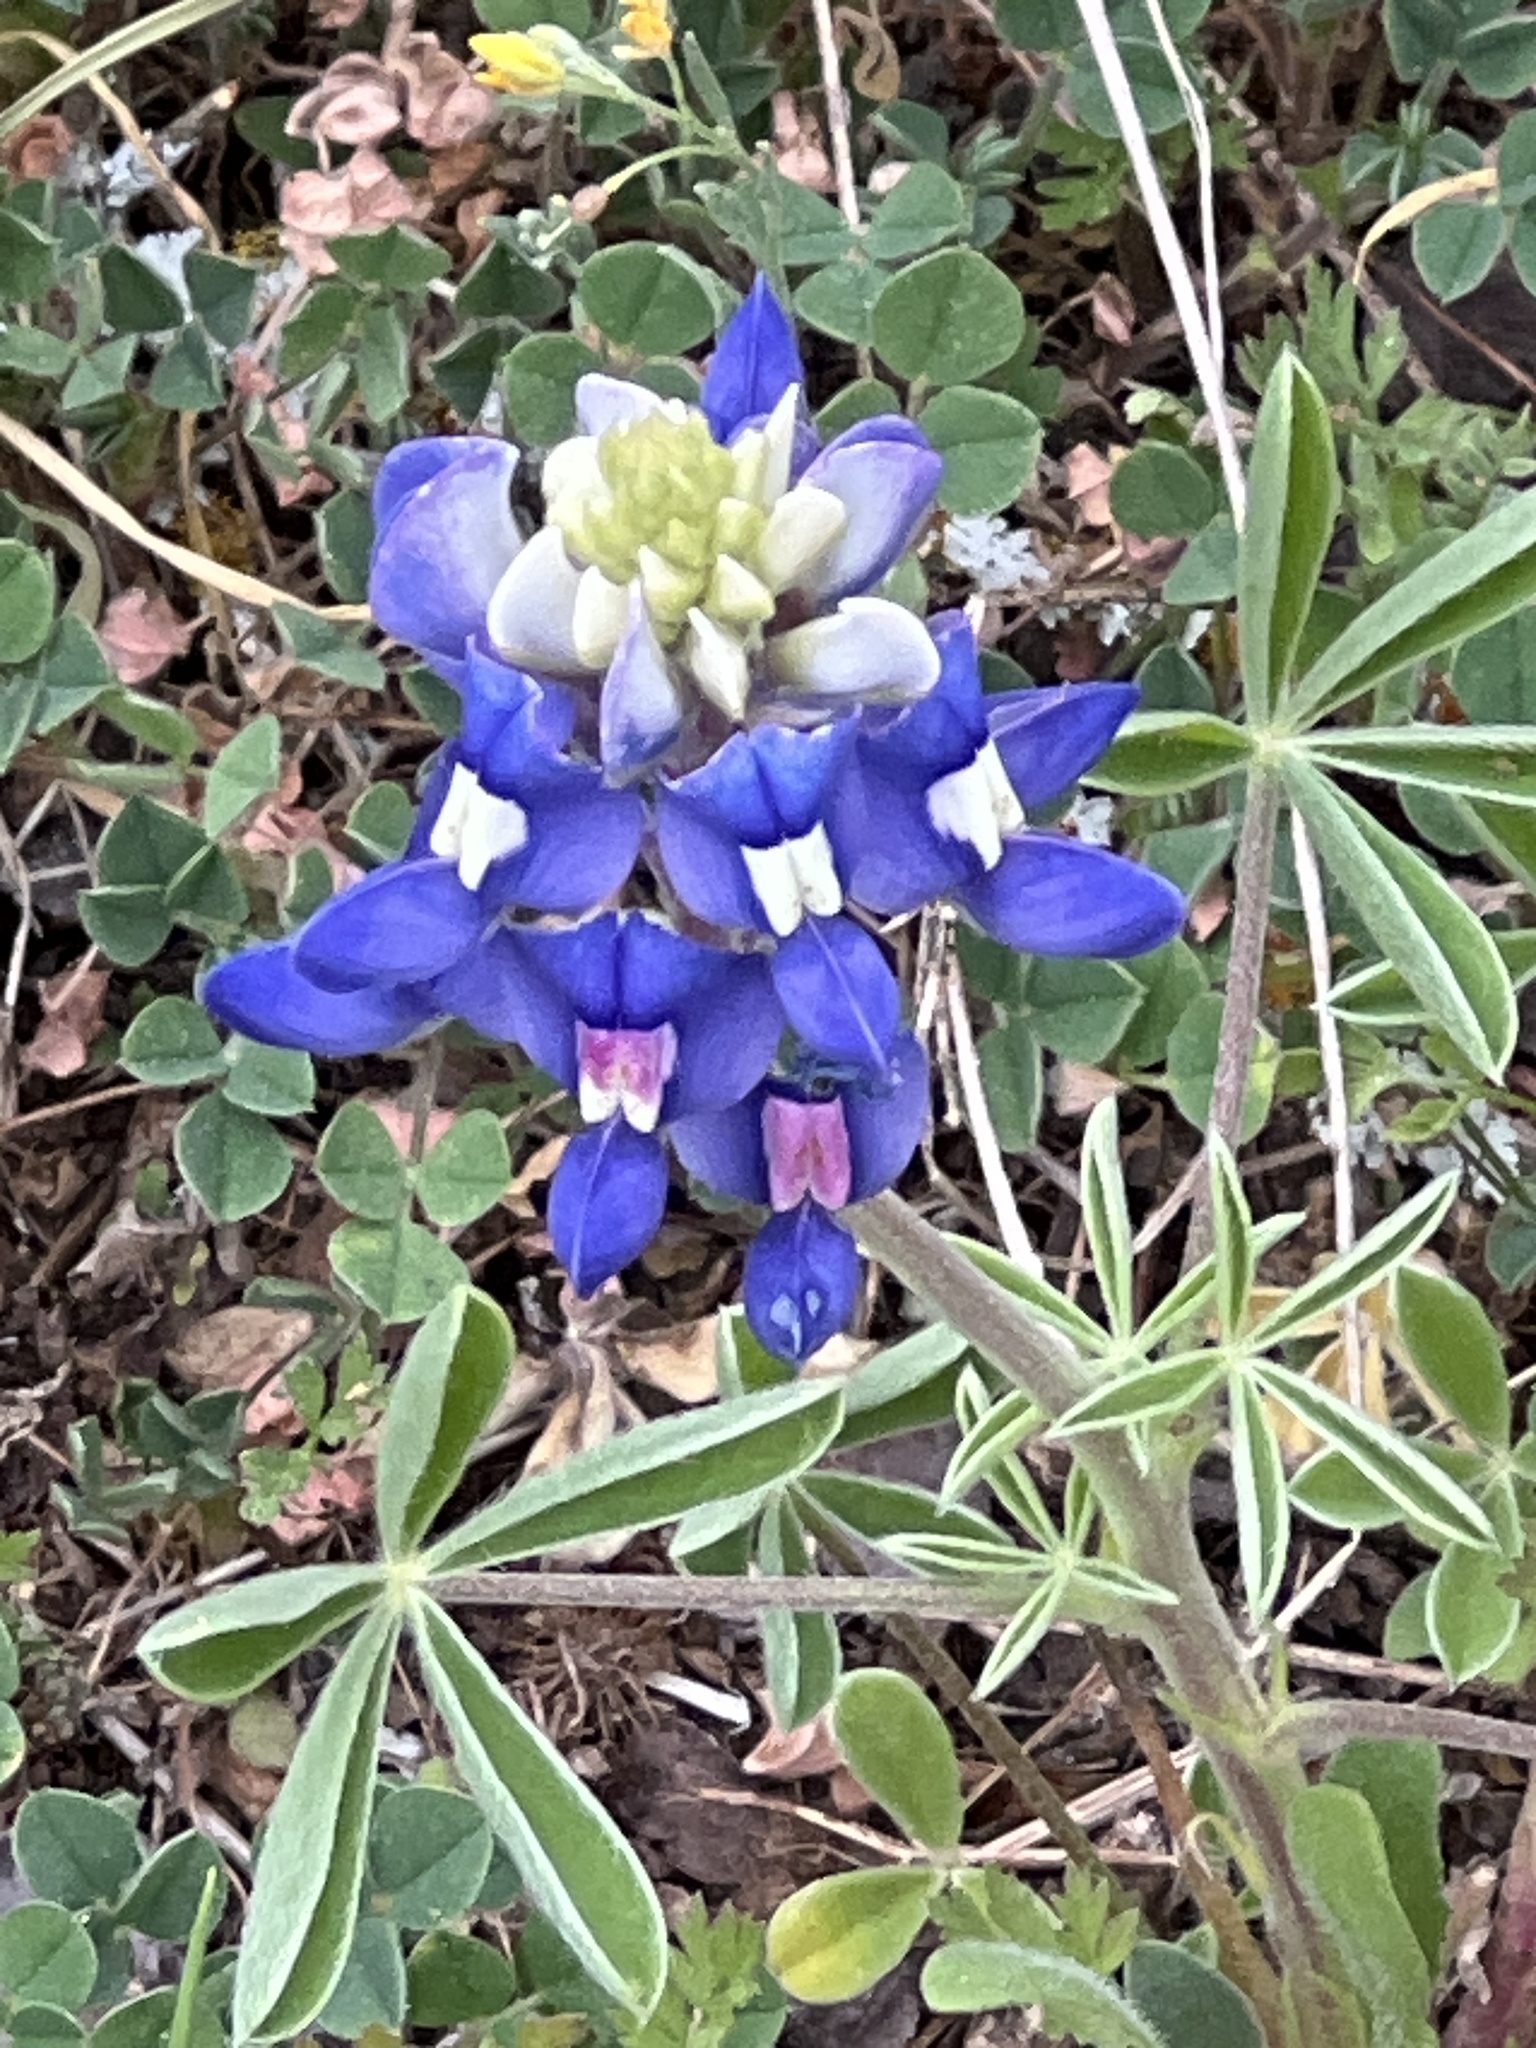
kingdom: Plantae
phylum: Tracheophyta
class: Magnoliopsida
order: Fabales
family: Fabaceae
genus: Lupinus
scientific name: Lupinus texensis
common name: Texas bluebonnet
